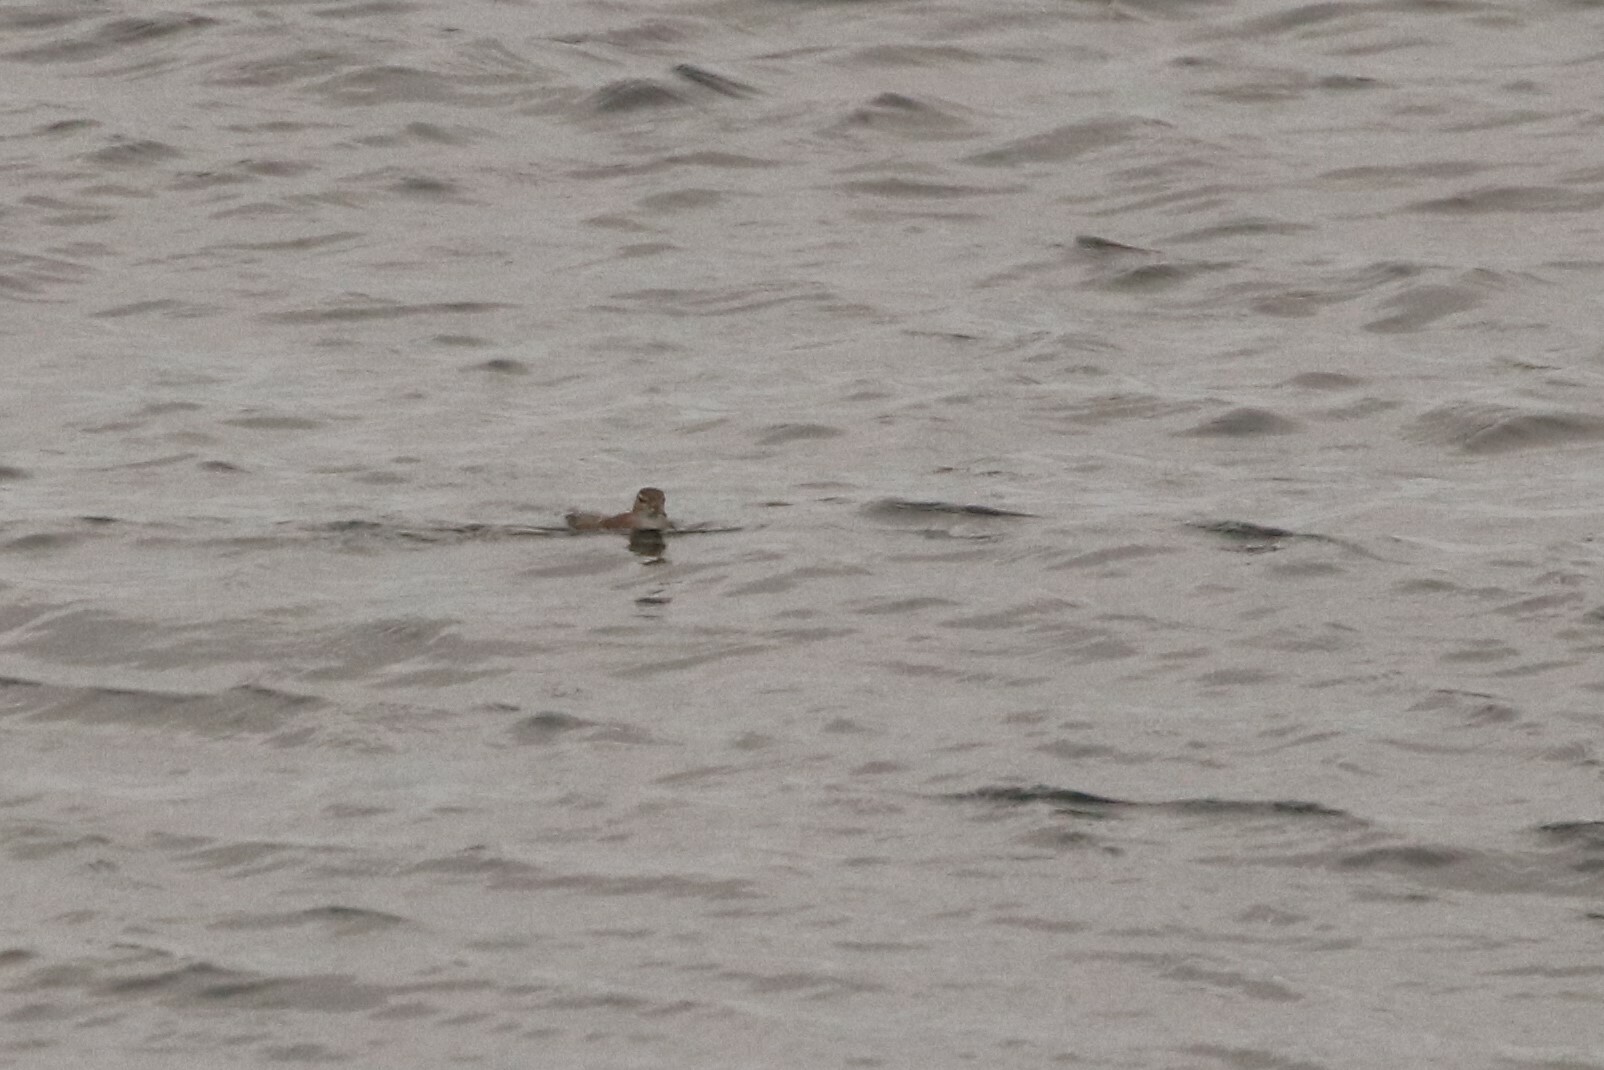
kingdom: Animalia
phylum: Chordata
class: Aves
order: Charadriiformes
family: Scolopacidae
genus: Actitis
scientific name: Actitis macularius
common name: Spotted sandpiper
